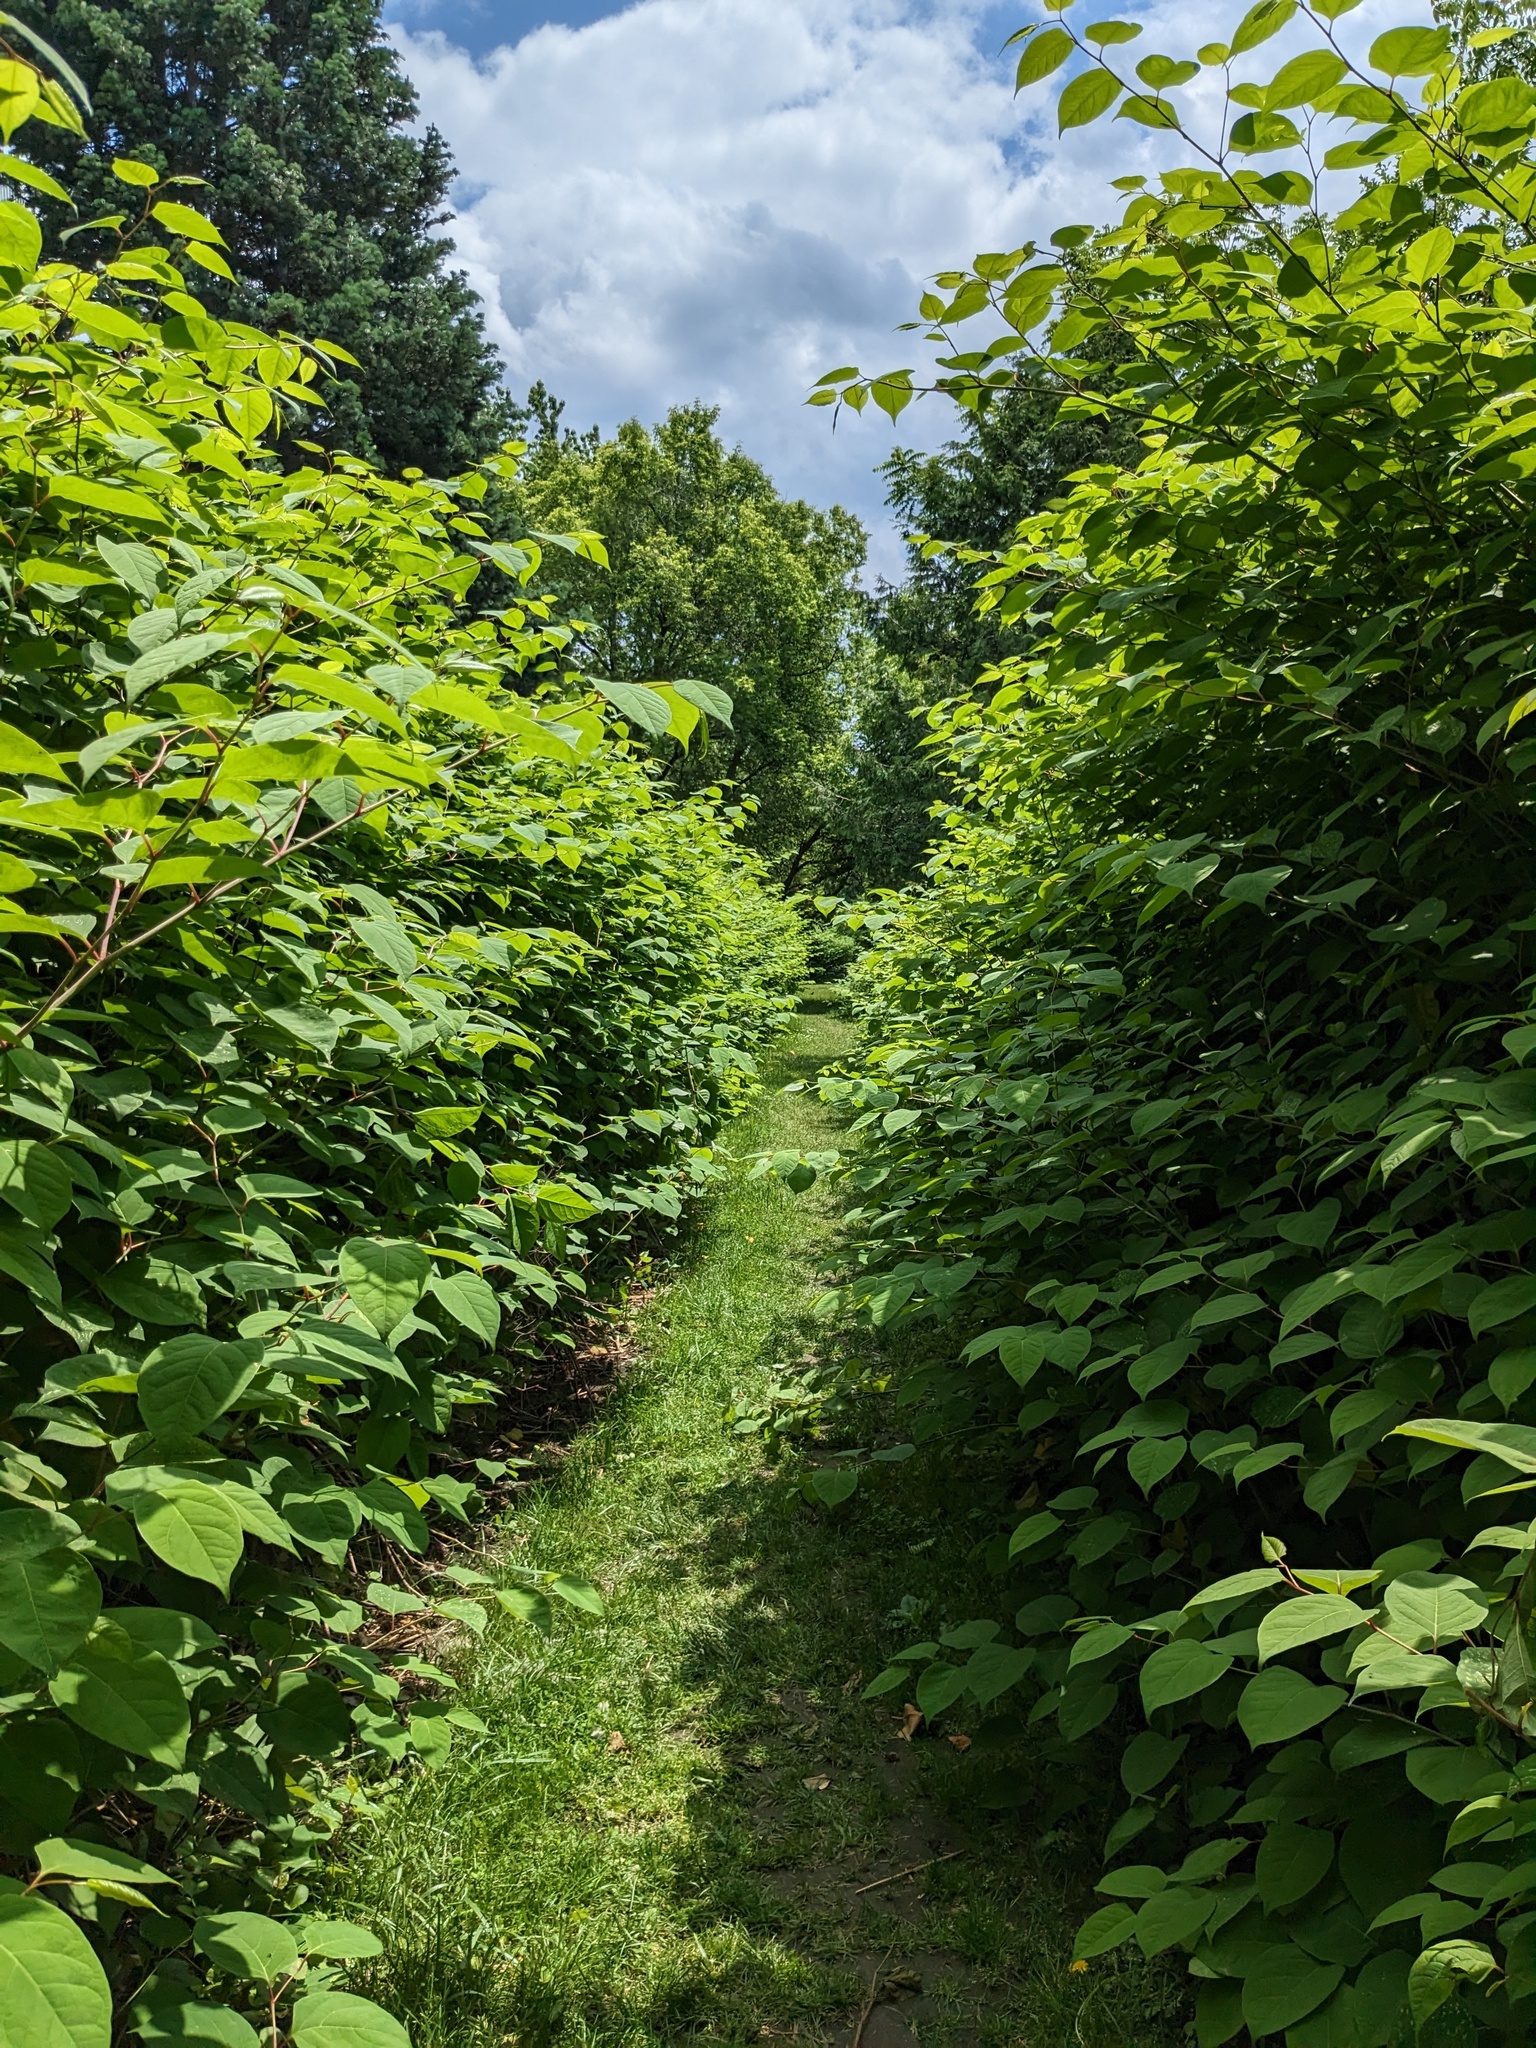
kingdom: Plantae
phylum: Tracheophyta
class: Magnoliopsida
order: Caryophyllales
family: Polygonaceae
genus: Reynoutria
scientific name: Reynoutria japonica
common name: Japanese knotweed
